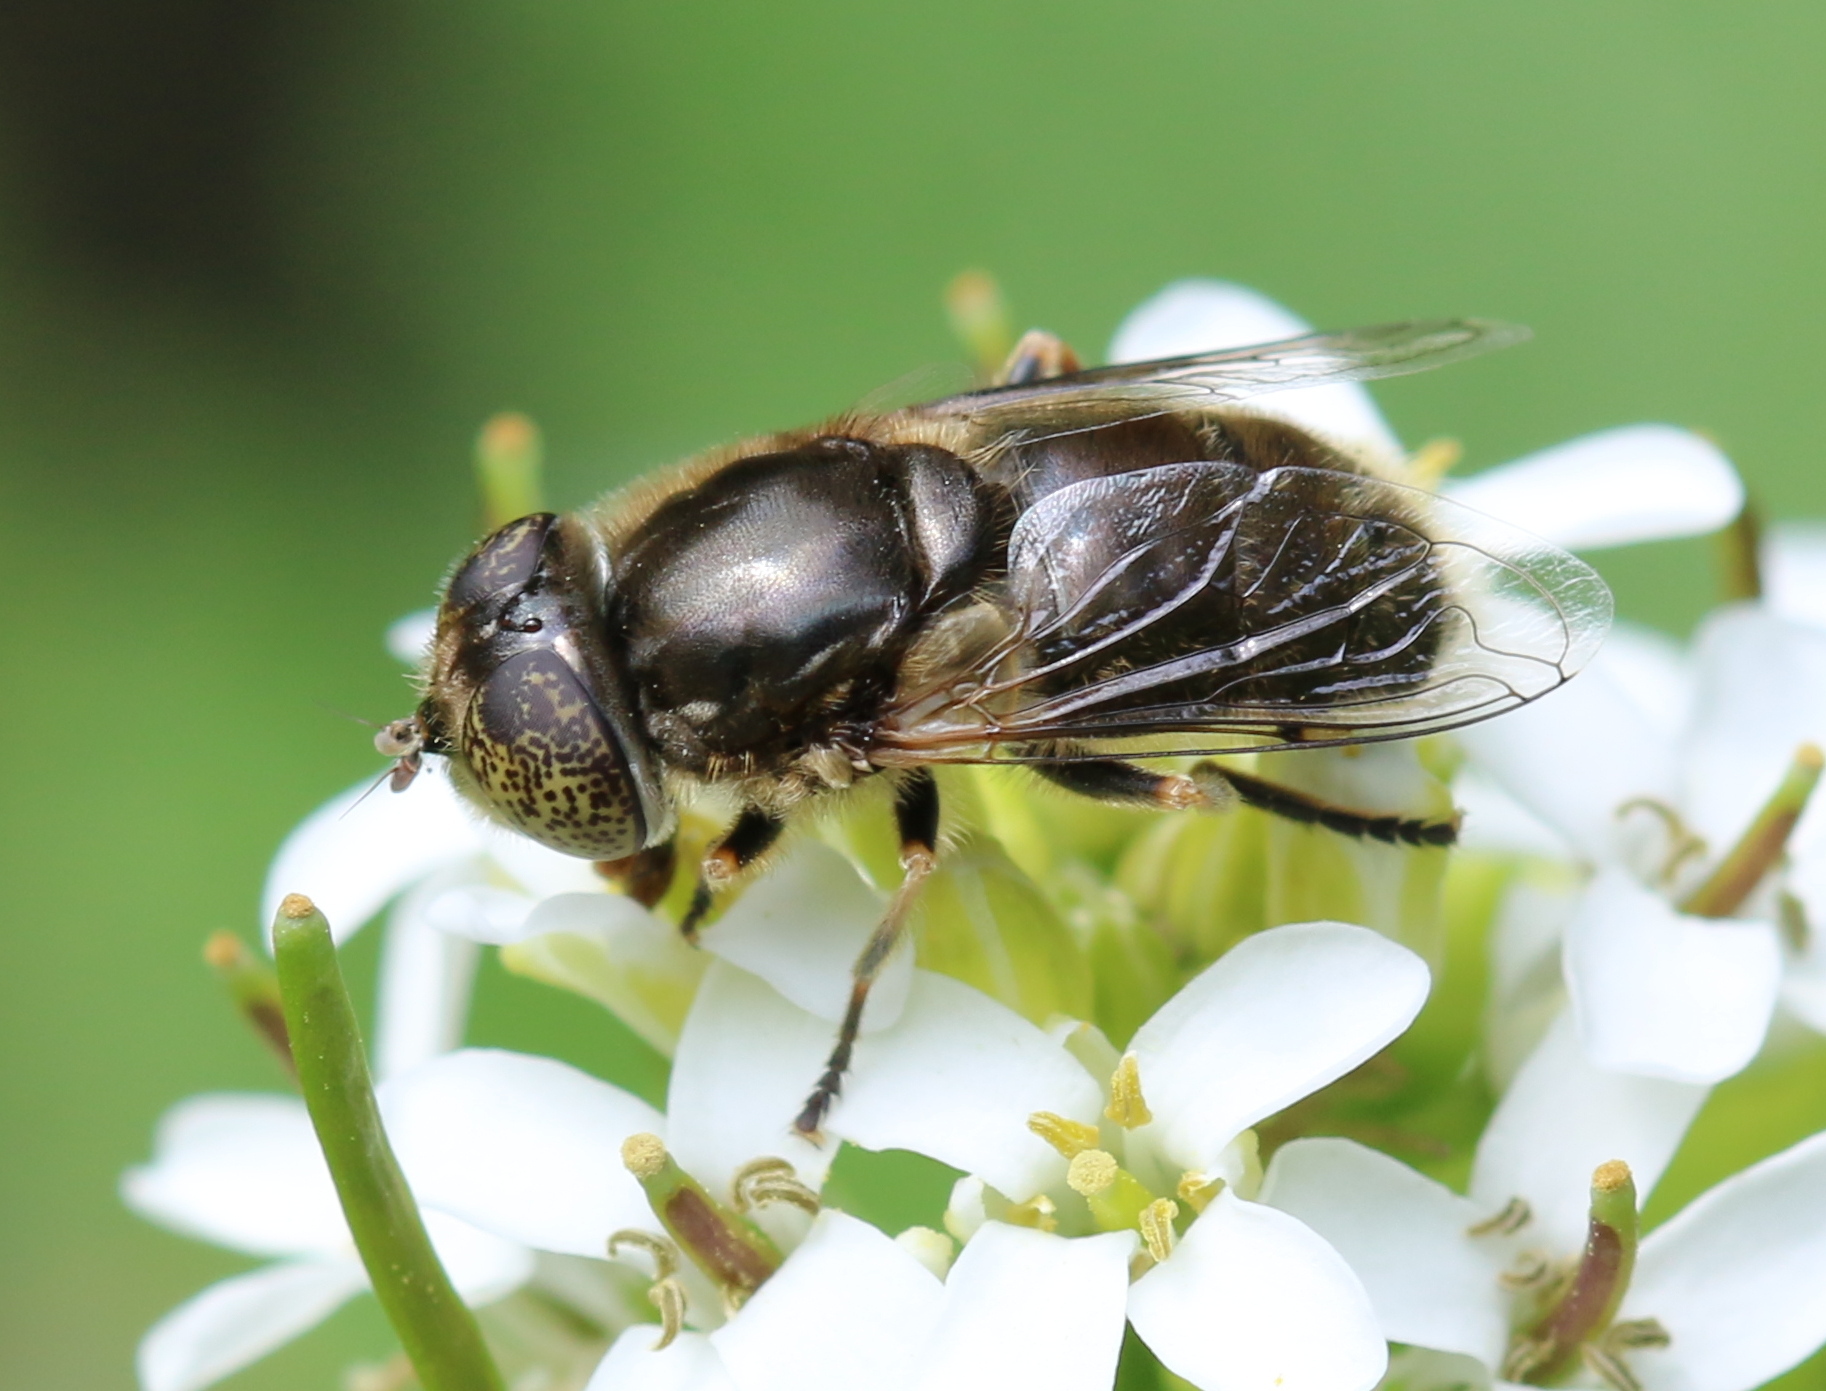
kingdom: Animalia
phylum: Arthropoda
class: Insecta
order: Diptera
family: Syrphidae
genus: Eristalinus
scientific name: Eristalinus aeneus
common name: Syrphid fly
